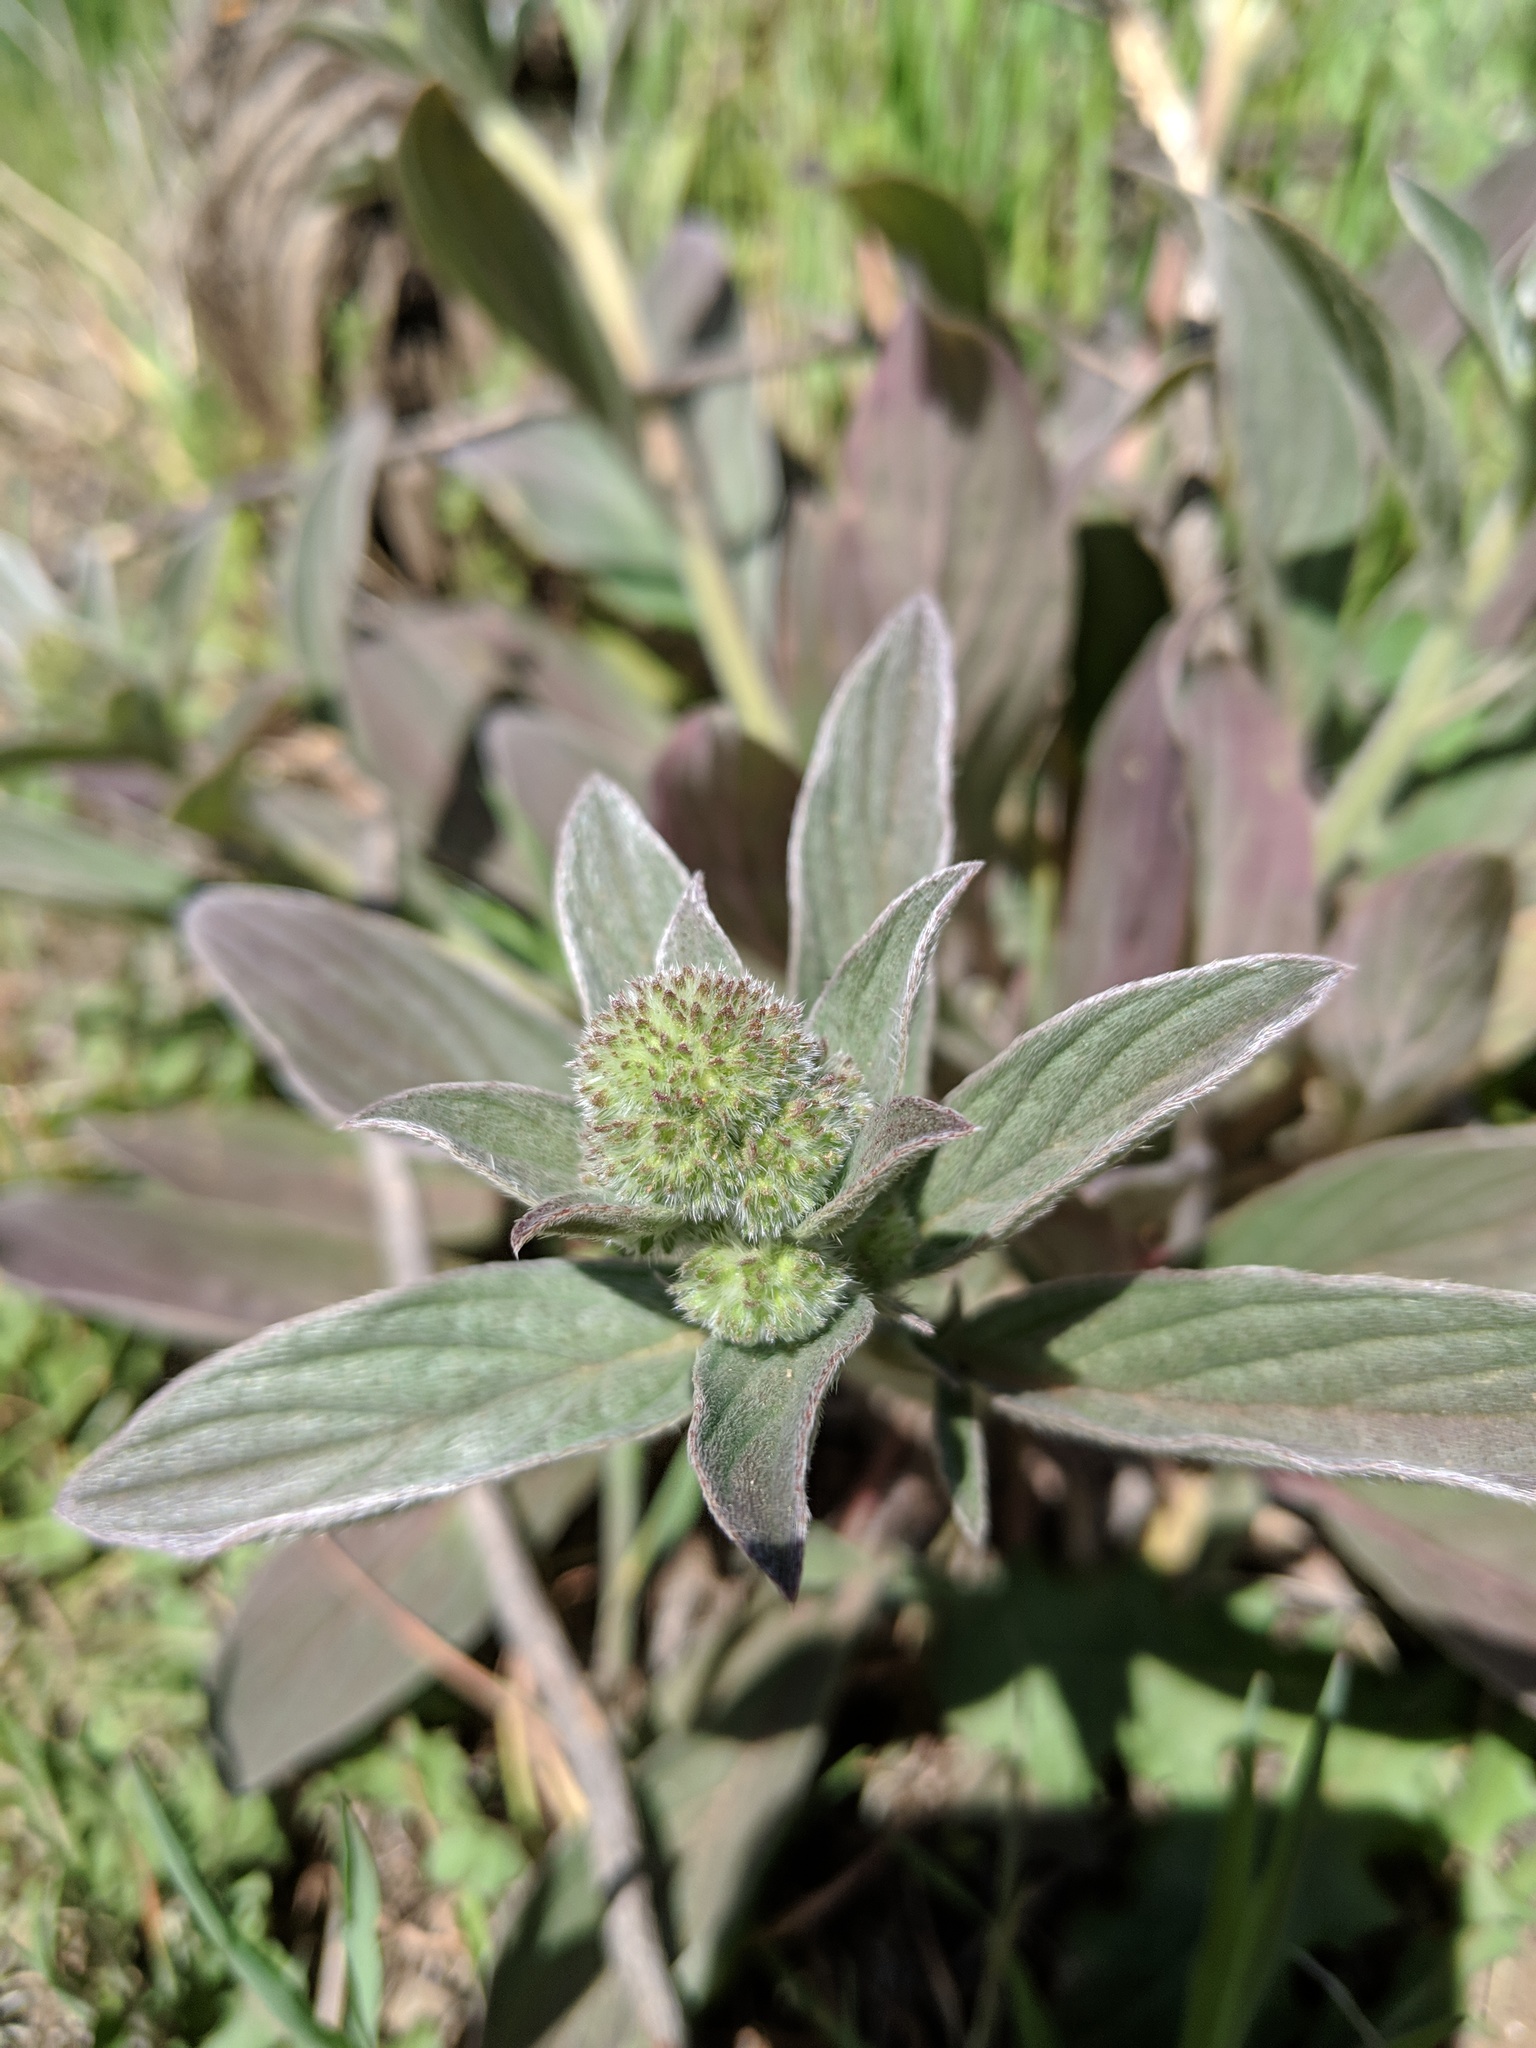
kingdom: Plantae
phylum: Tracheophyta
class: Magnoliopsida
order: Boraginales
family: Hydrophyllaceae
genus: Phacelia
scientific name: Phacelia hastata
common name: Silver-leaved phacelia
